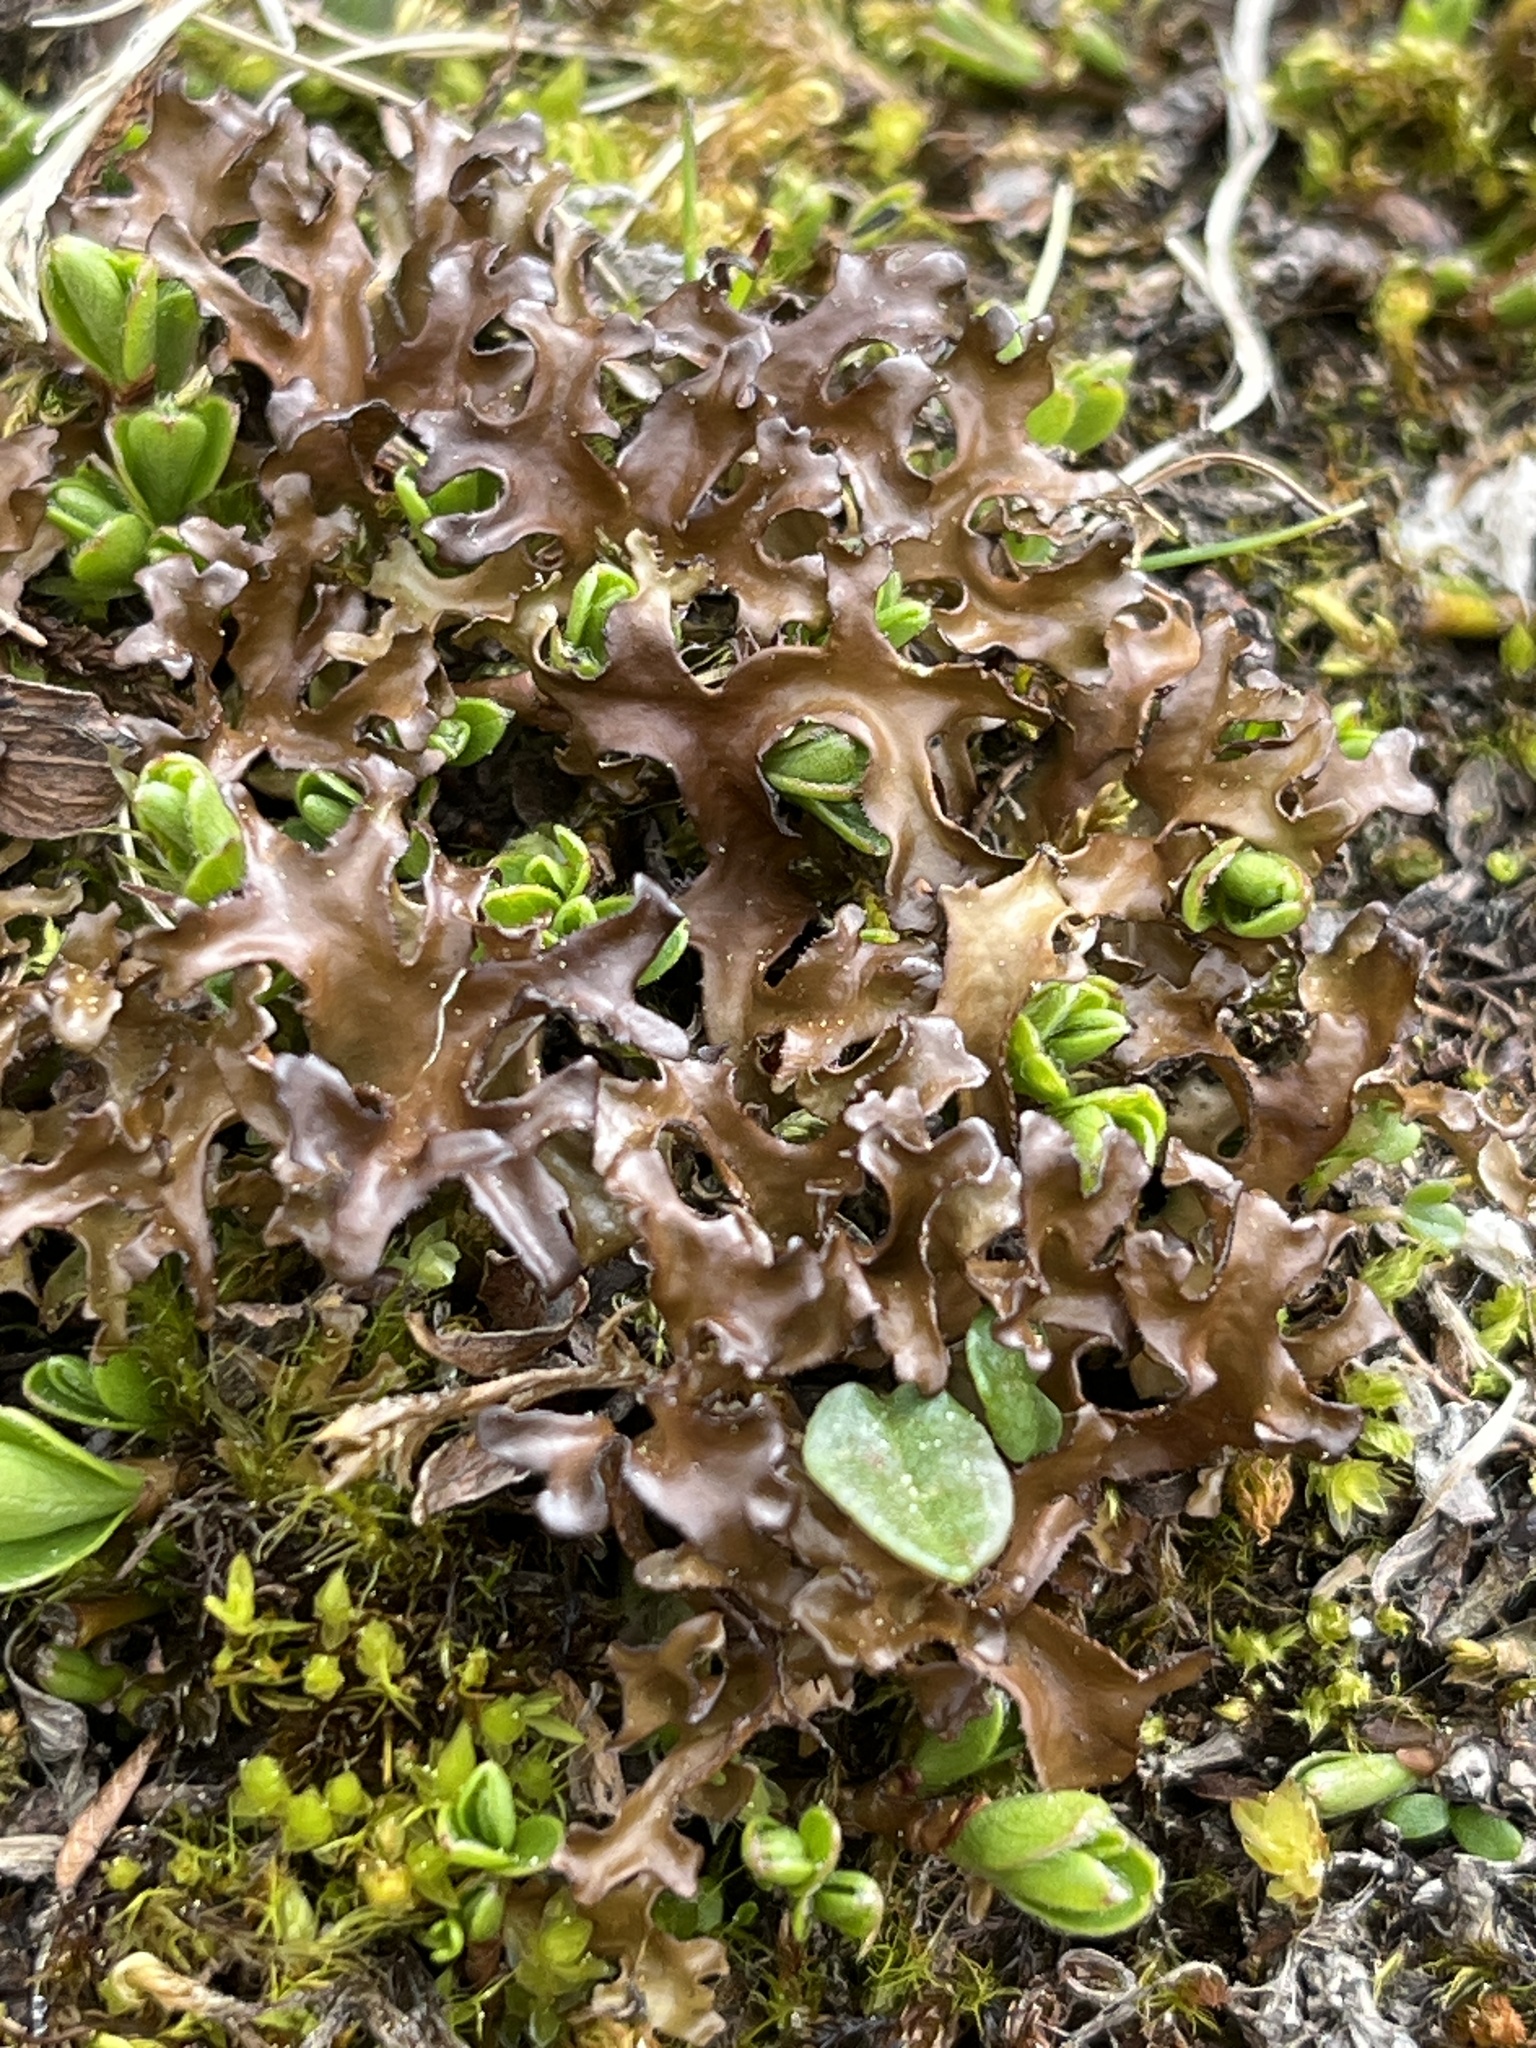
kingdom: Fungi
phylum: Ascomycota
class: Lecanoromycetes
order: Lecanorales
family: Parmeliaceae
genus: Cetraria
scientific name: Cetraria islandica
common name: Iceland lichen
